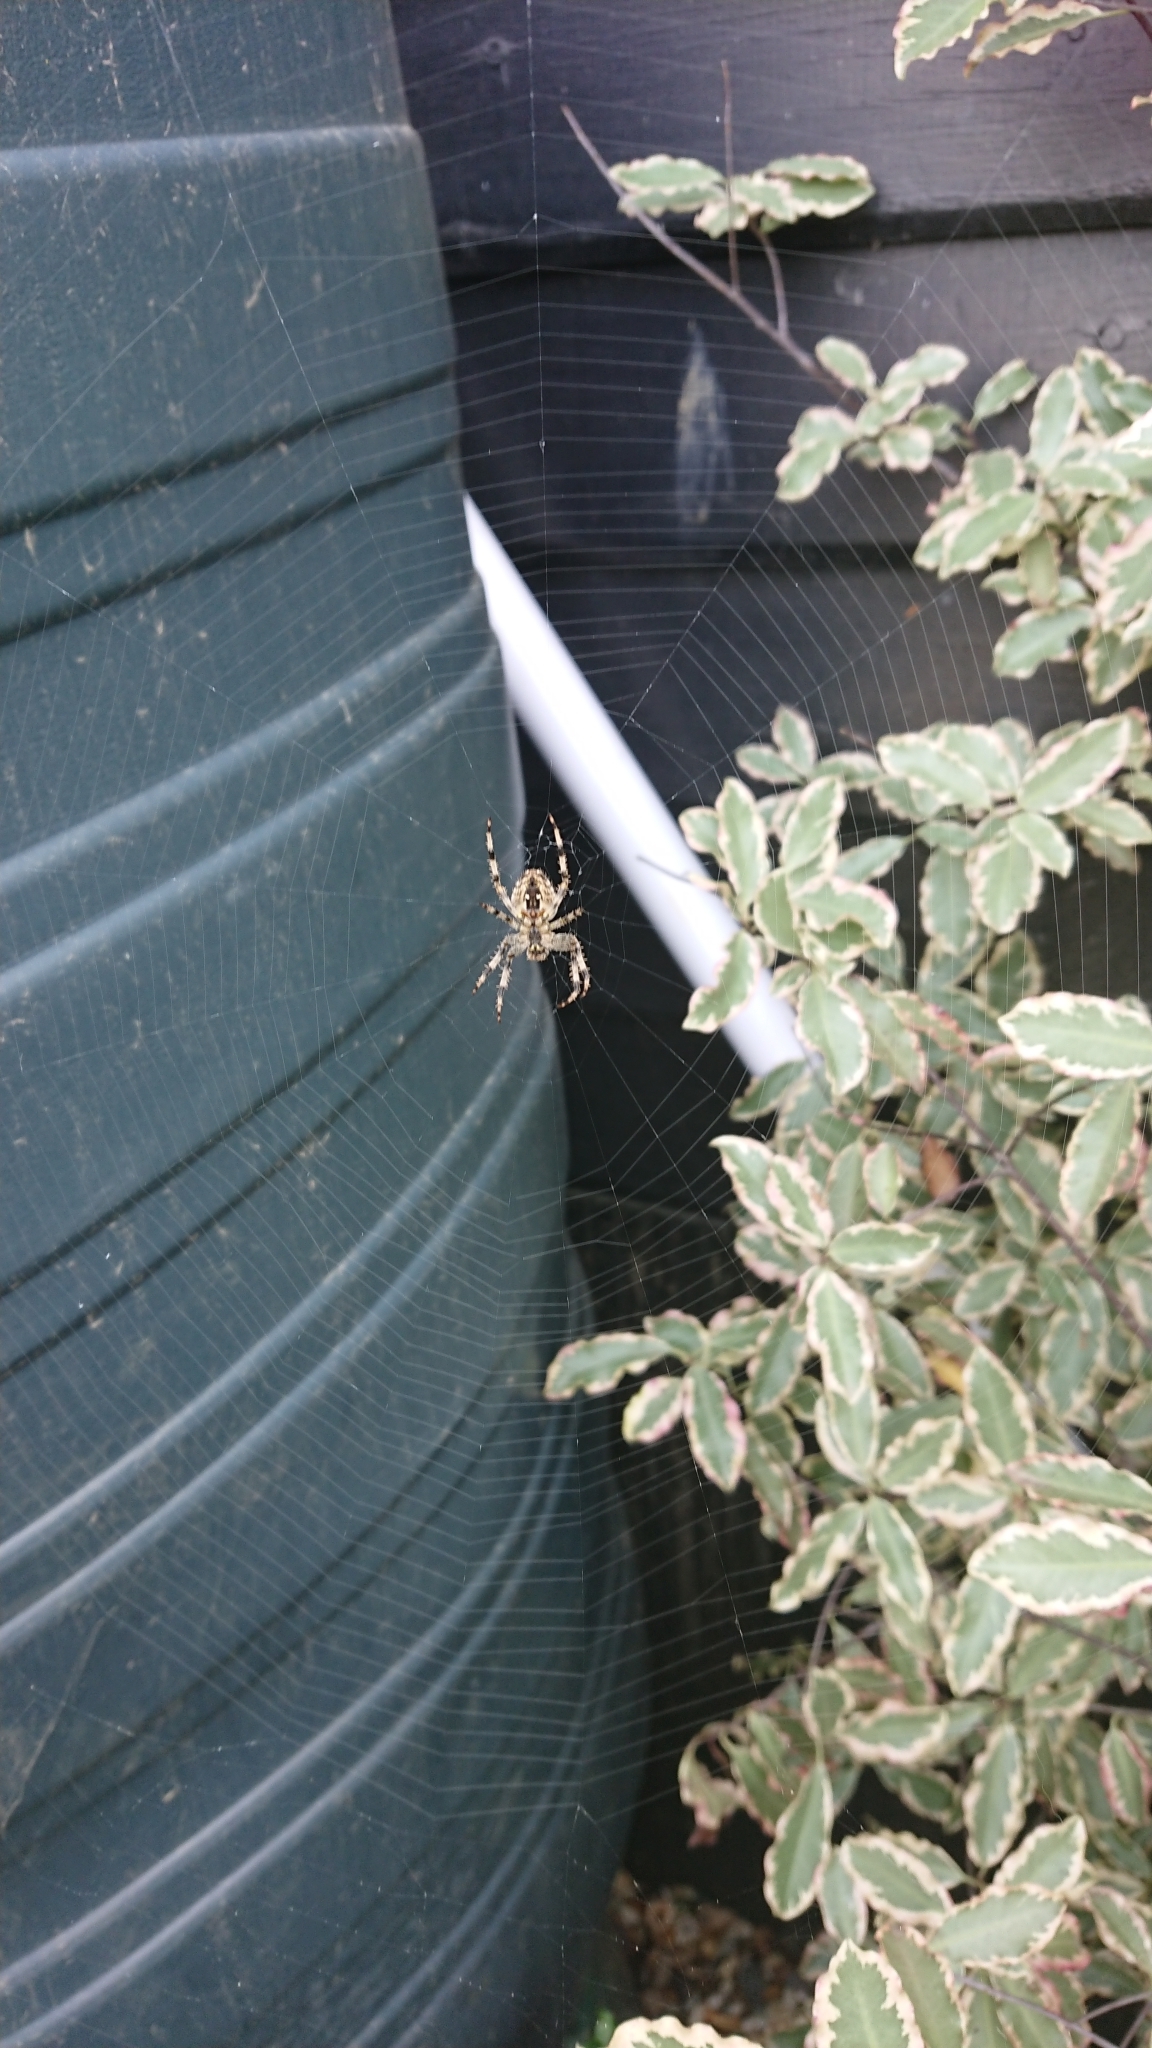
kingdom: Animalia
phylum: Arthropoda
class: Arachnida
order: Araneae
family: Araneidae
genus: Araneus
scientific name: Araneus diadematus
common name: Cross orbweaver
